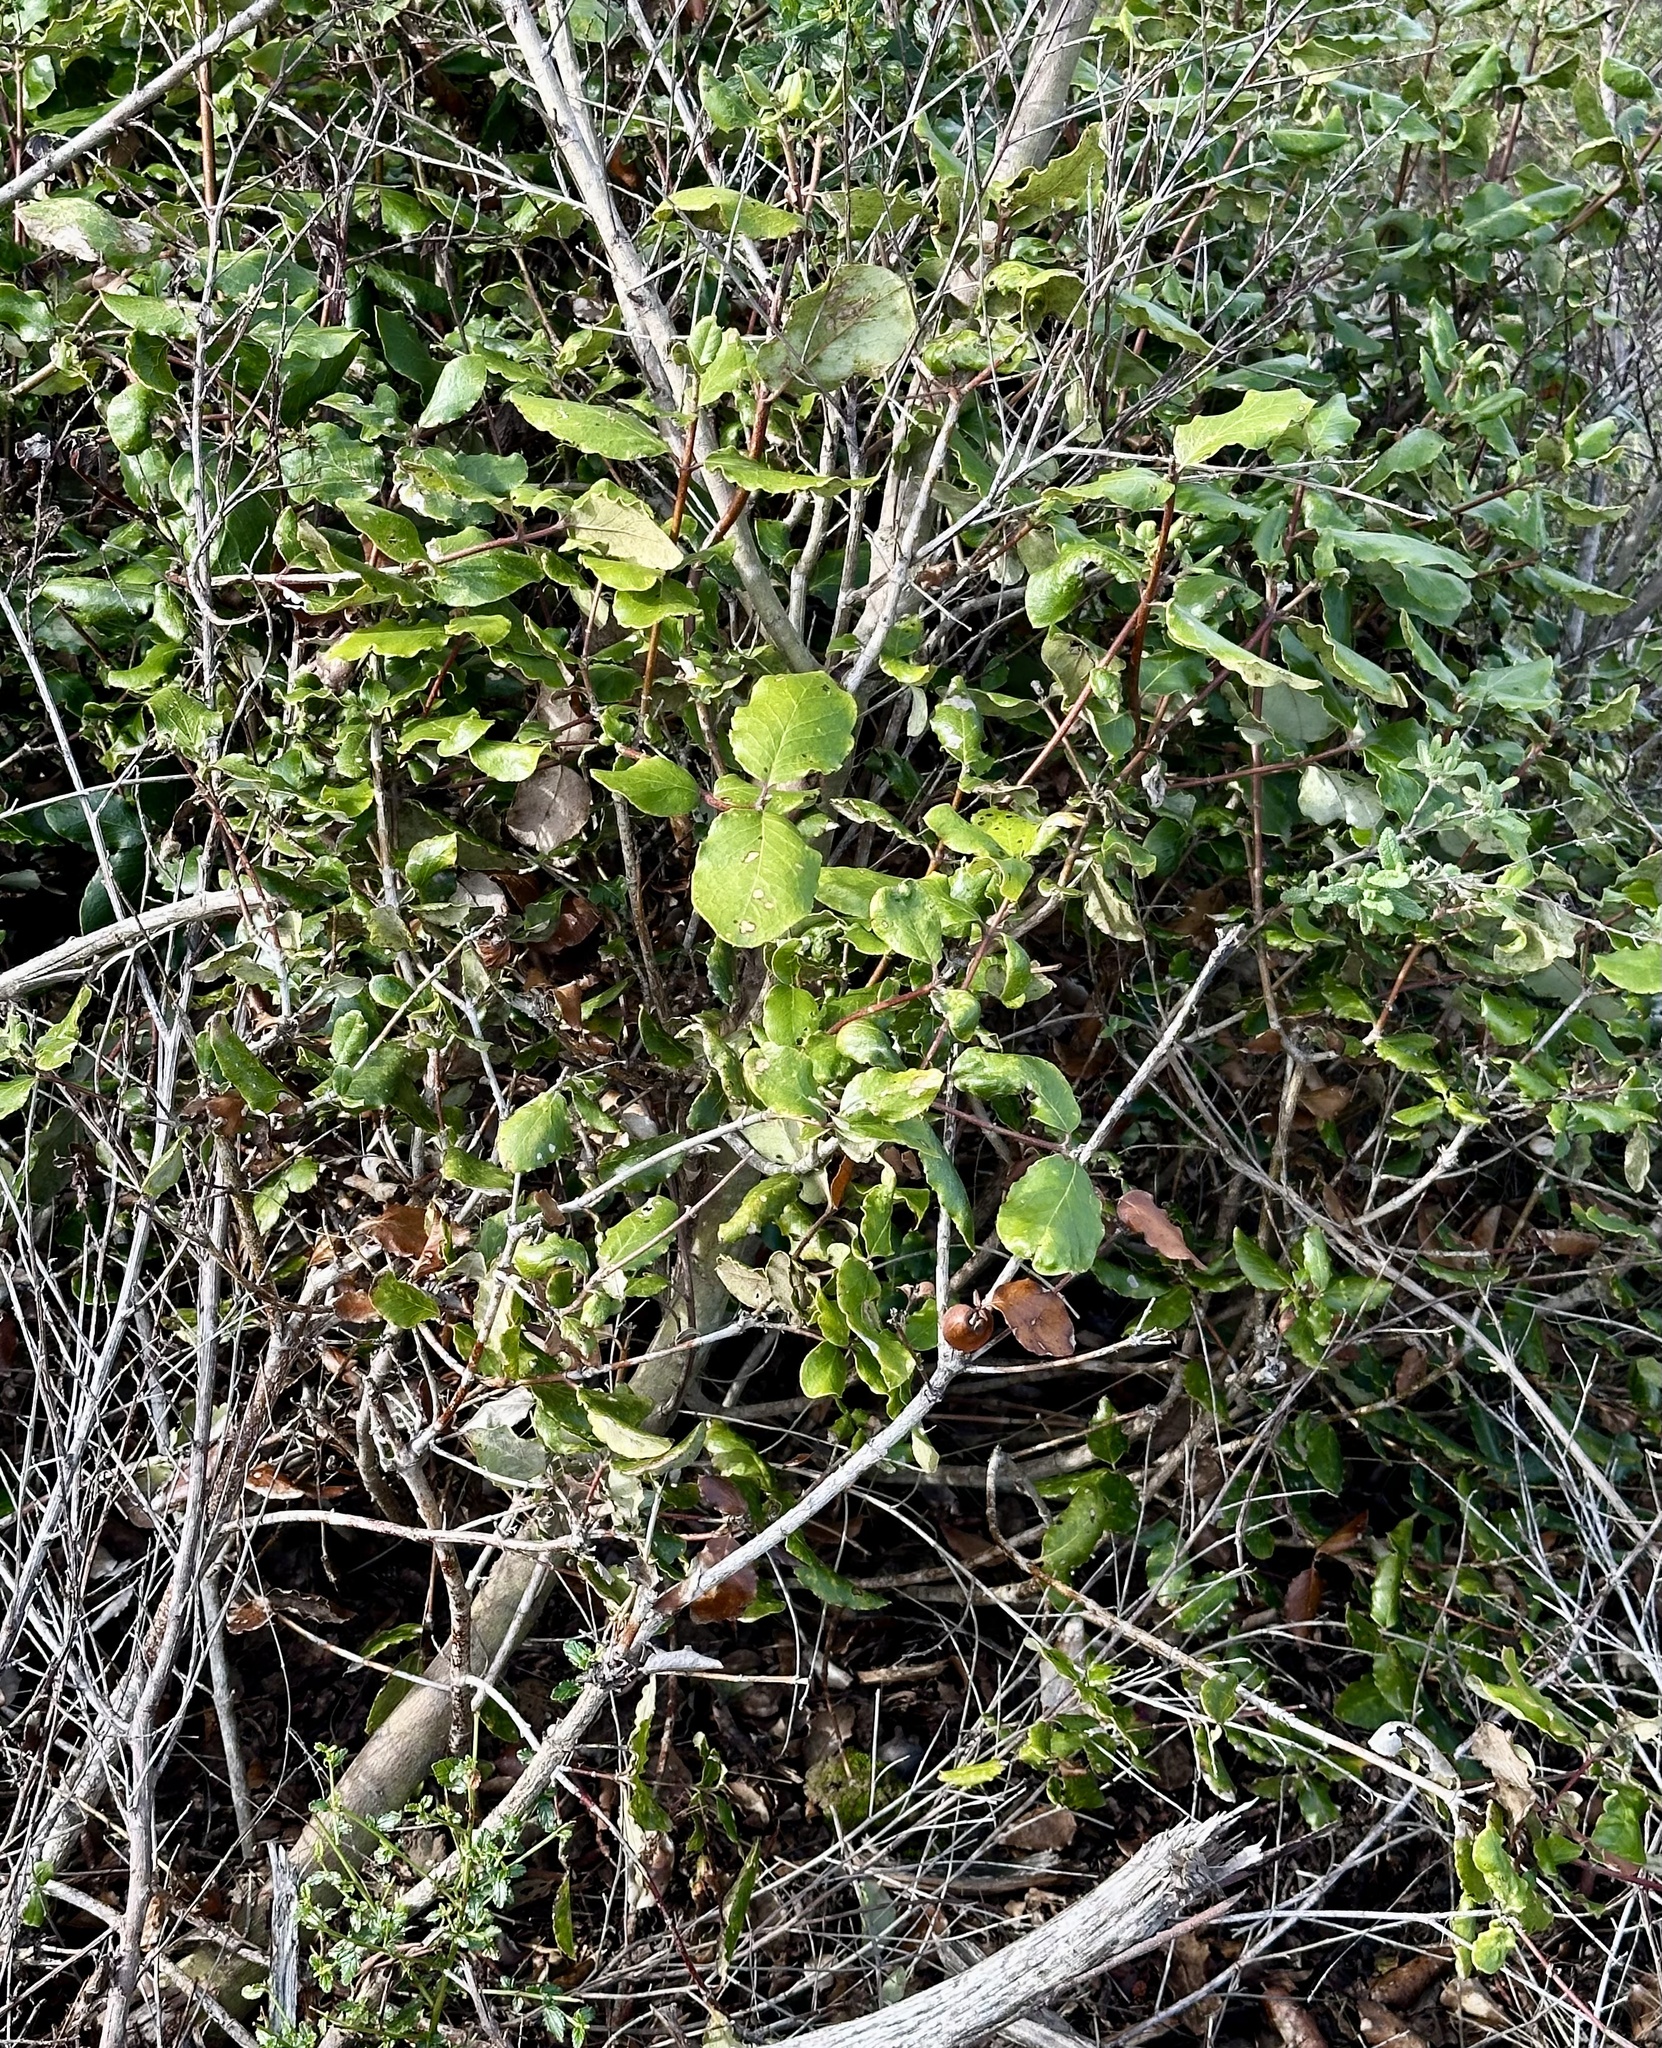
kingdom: Plantae
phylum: Tracheophyta
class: Magnoliopsida
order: Garryales
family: Garryaceae
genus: Garrya
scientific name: Garrya elliptica
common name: Silk-tassel
